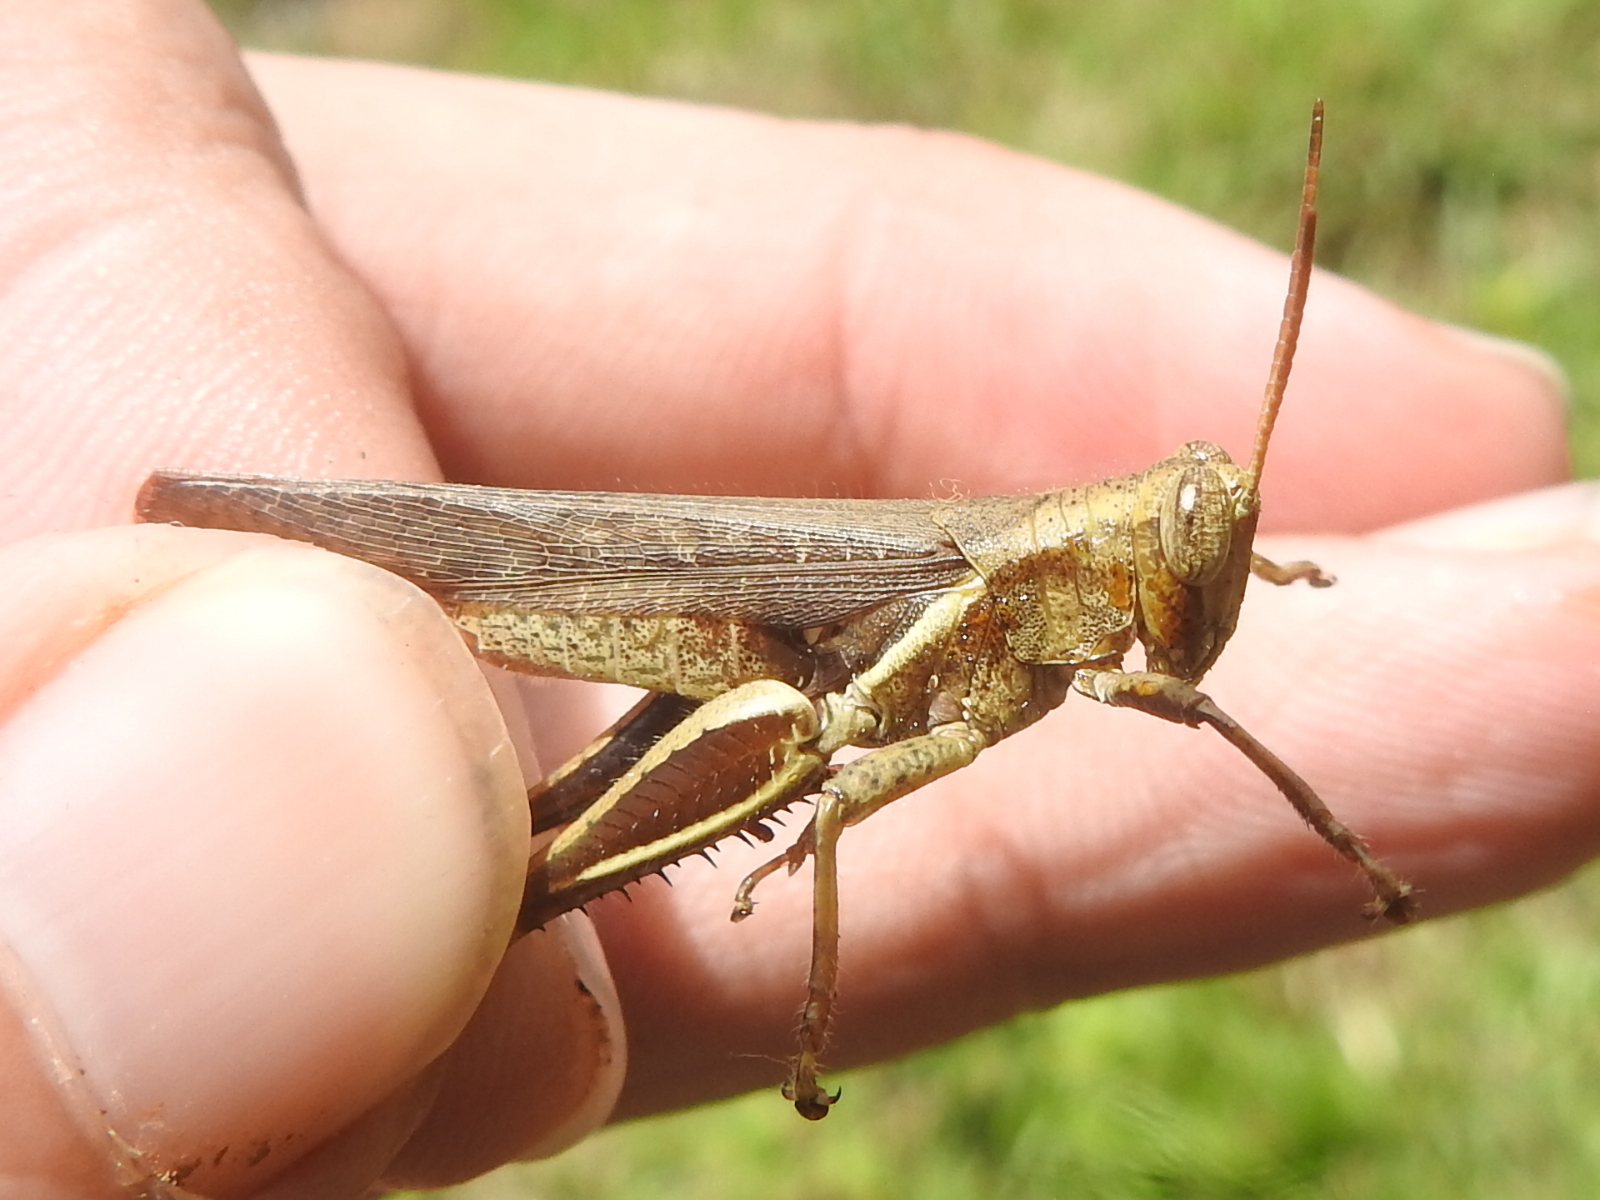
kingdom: Animalia
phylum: Arthropoda
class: Insecta
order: Orthoptera
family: Acrididae
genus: Abracris
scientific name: Abracris flavolineata
